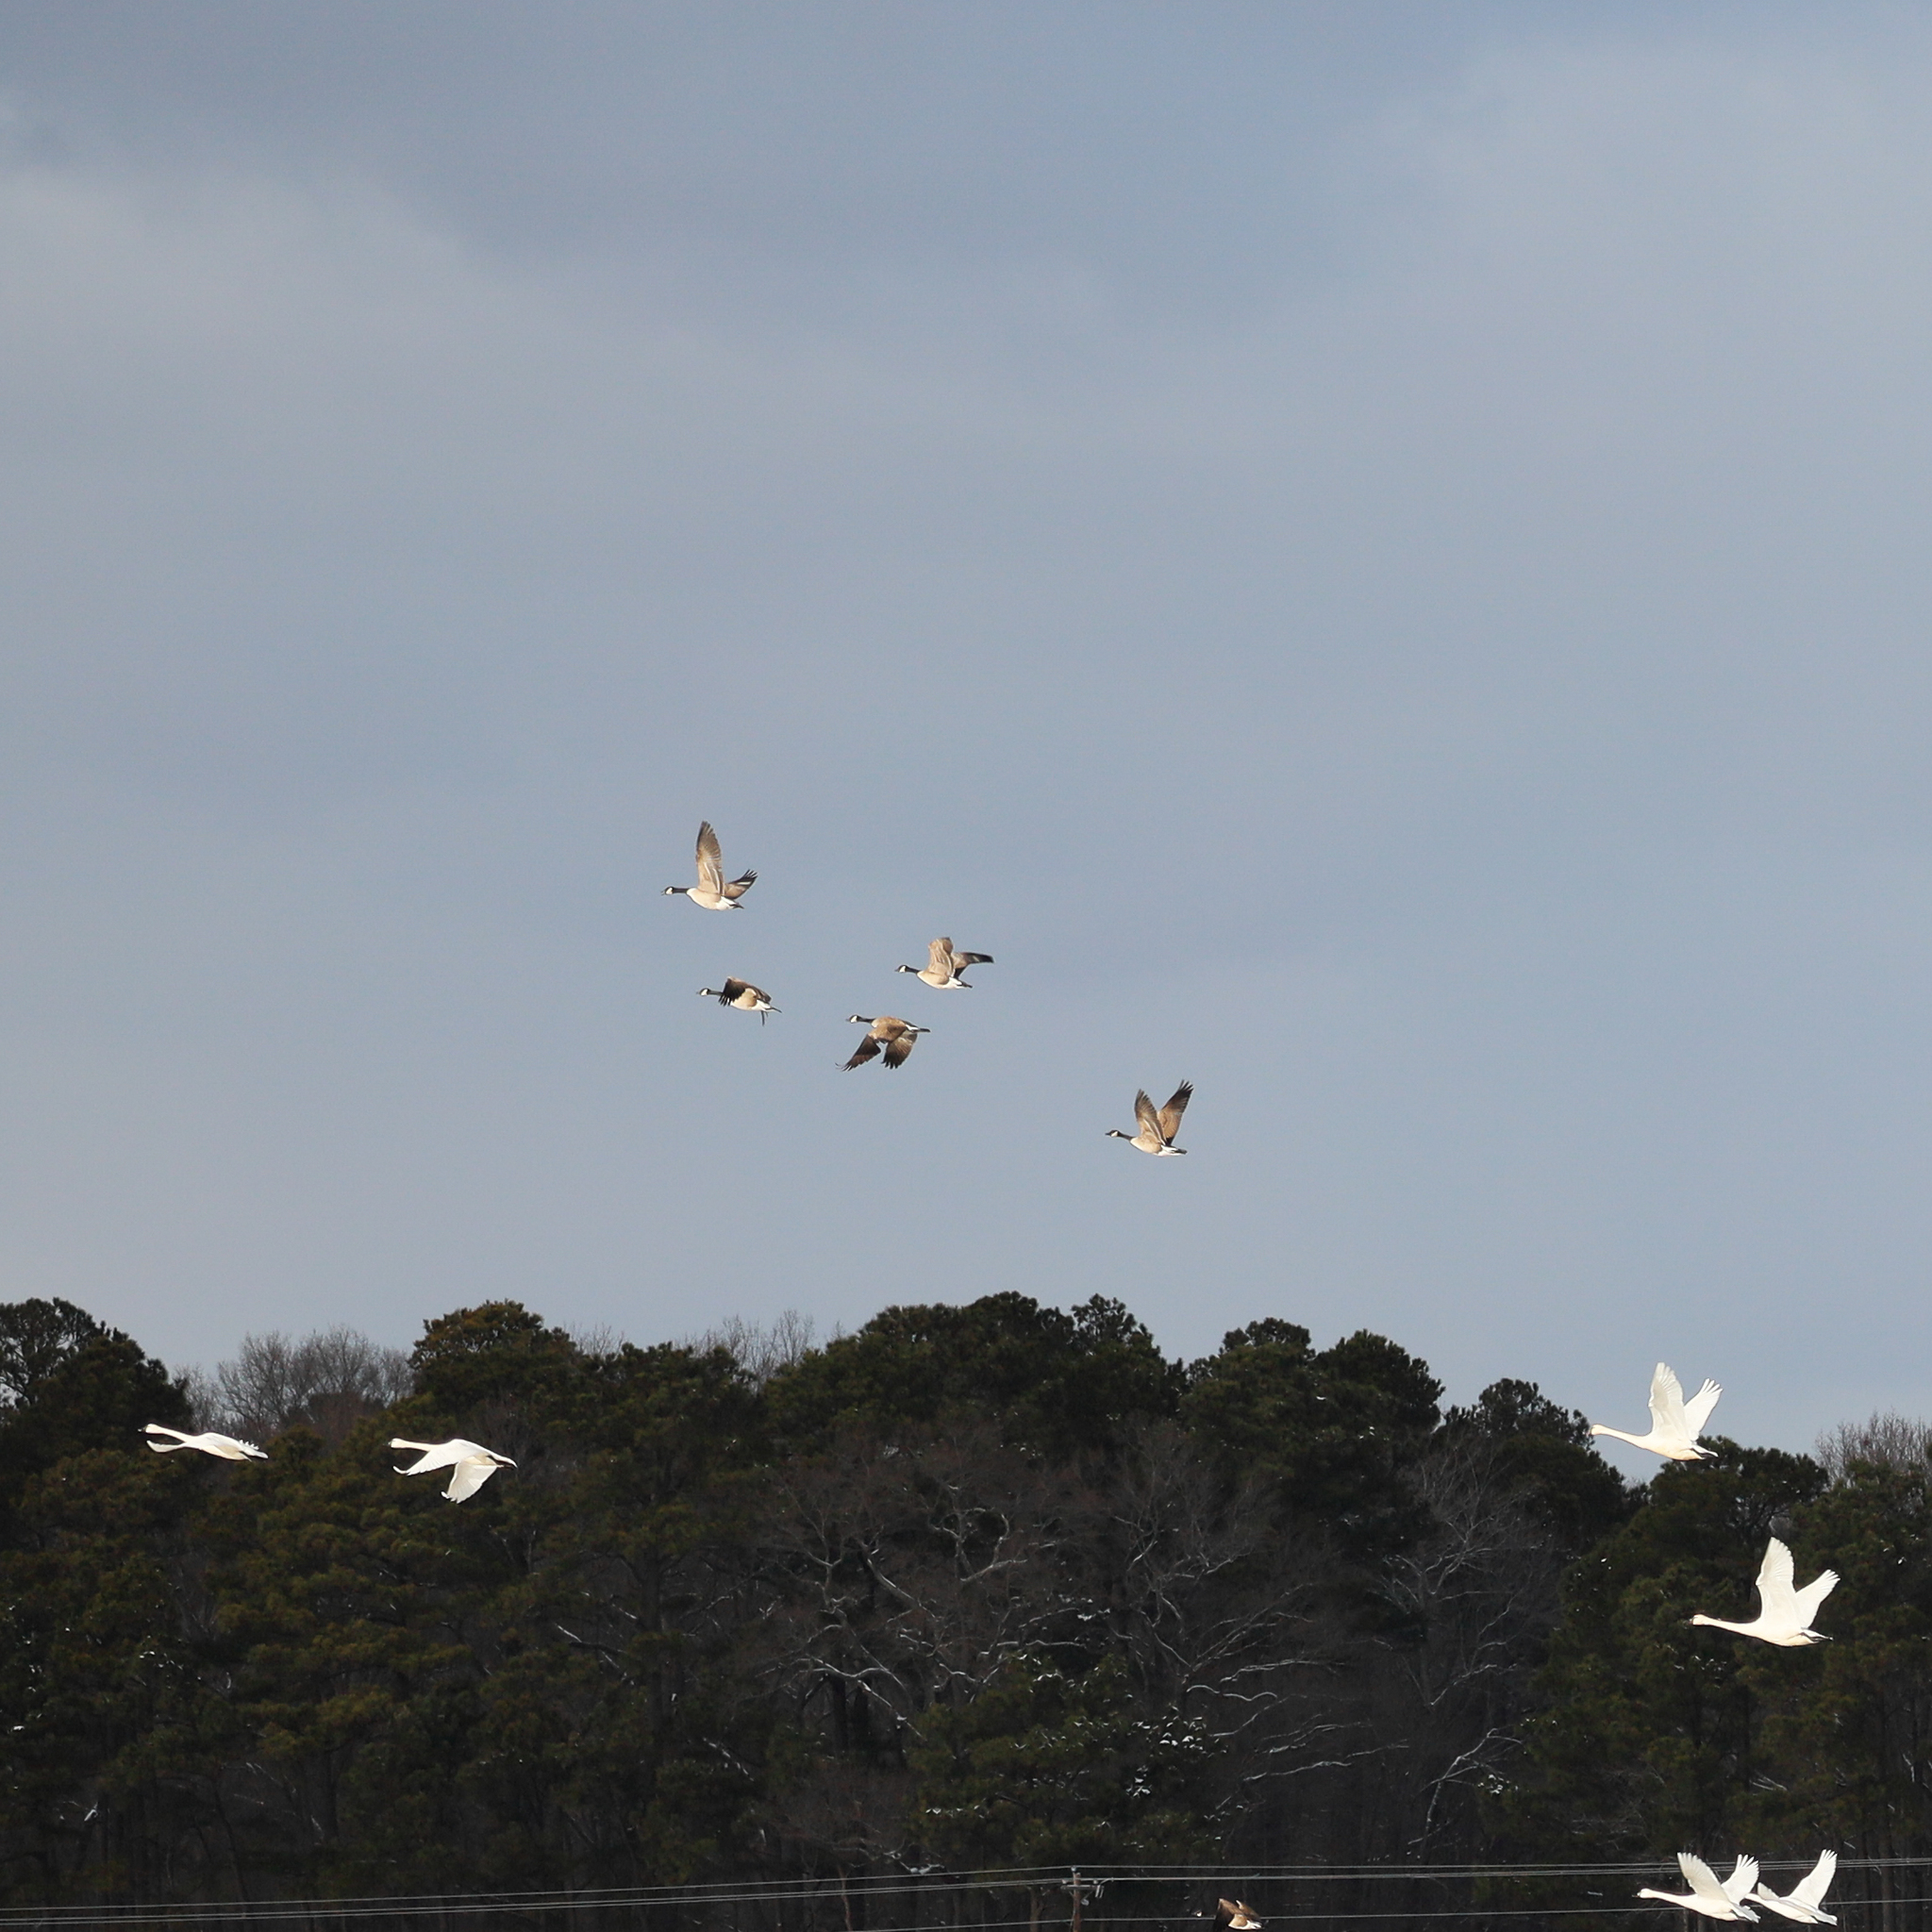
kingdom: Animalia
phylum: Chordata
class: Aves
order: Anseriformes
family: Anatidae
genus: Branta
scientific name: Branta canadensis
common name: Canada goose
